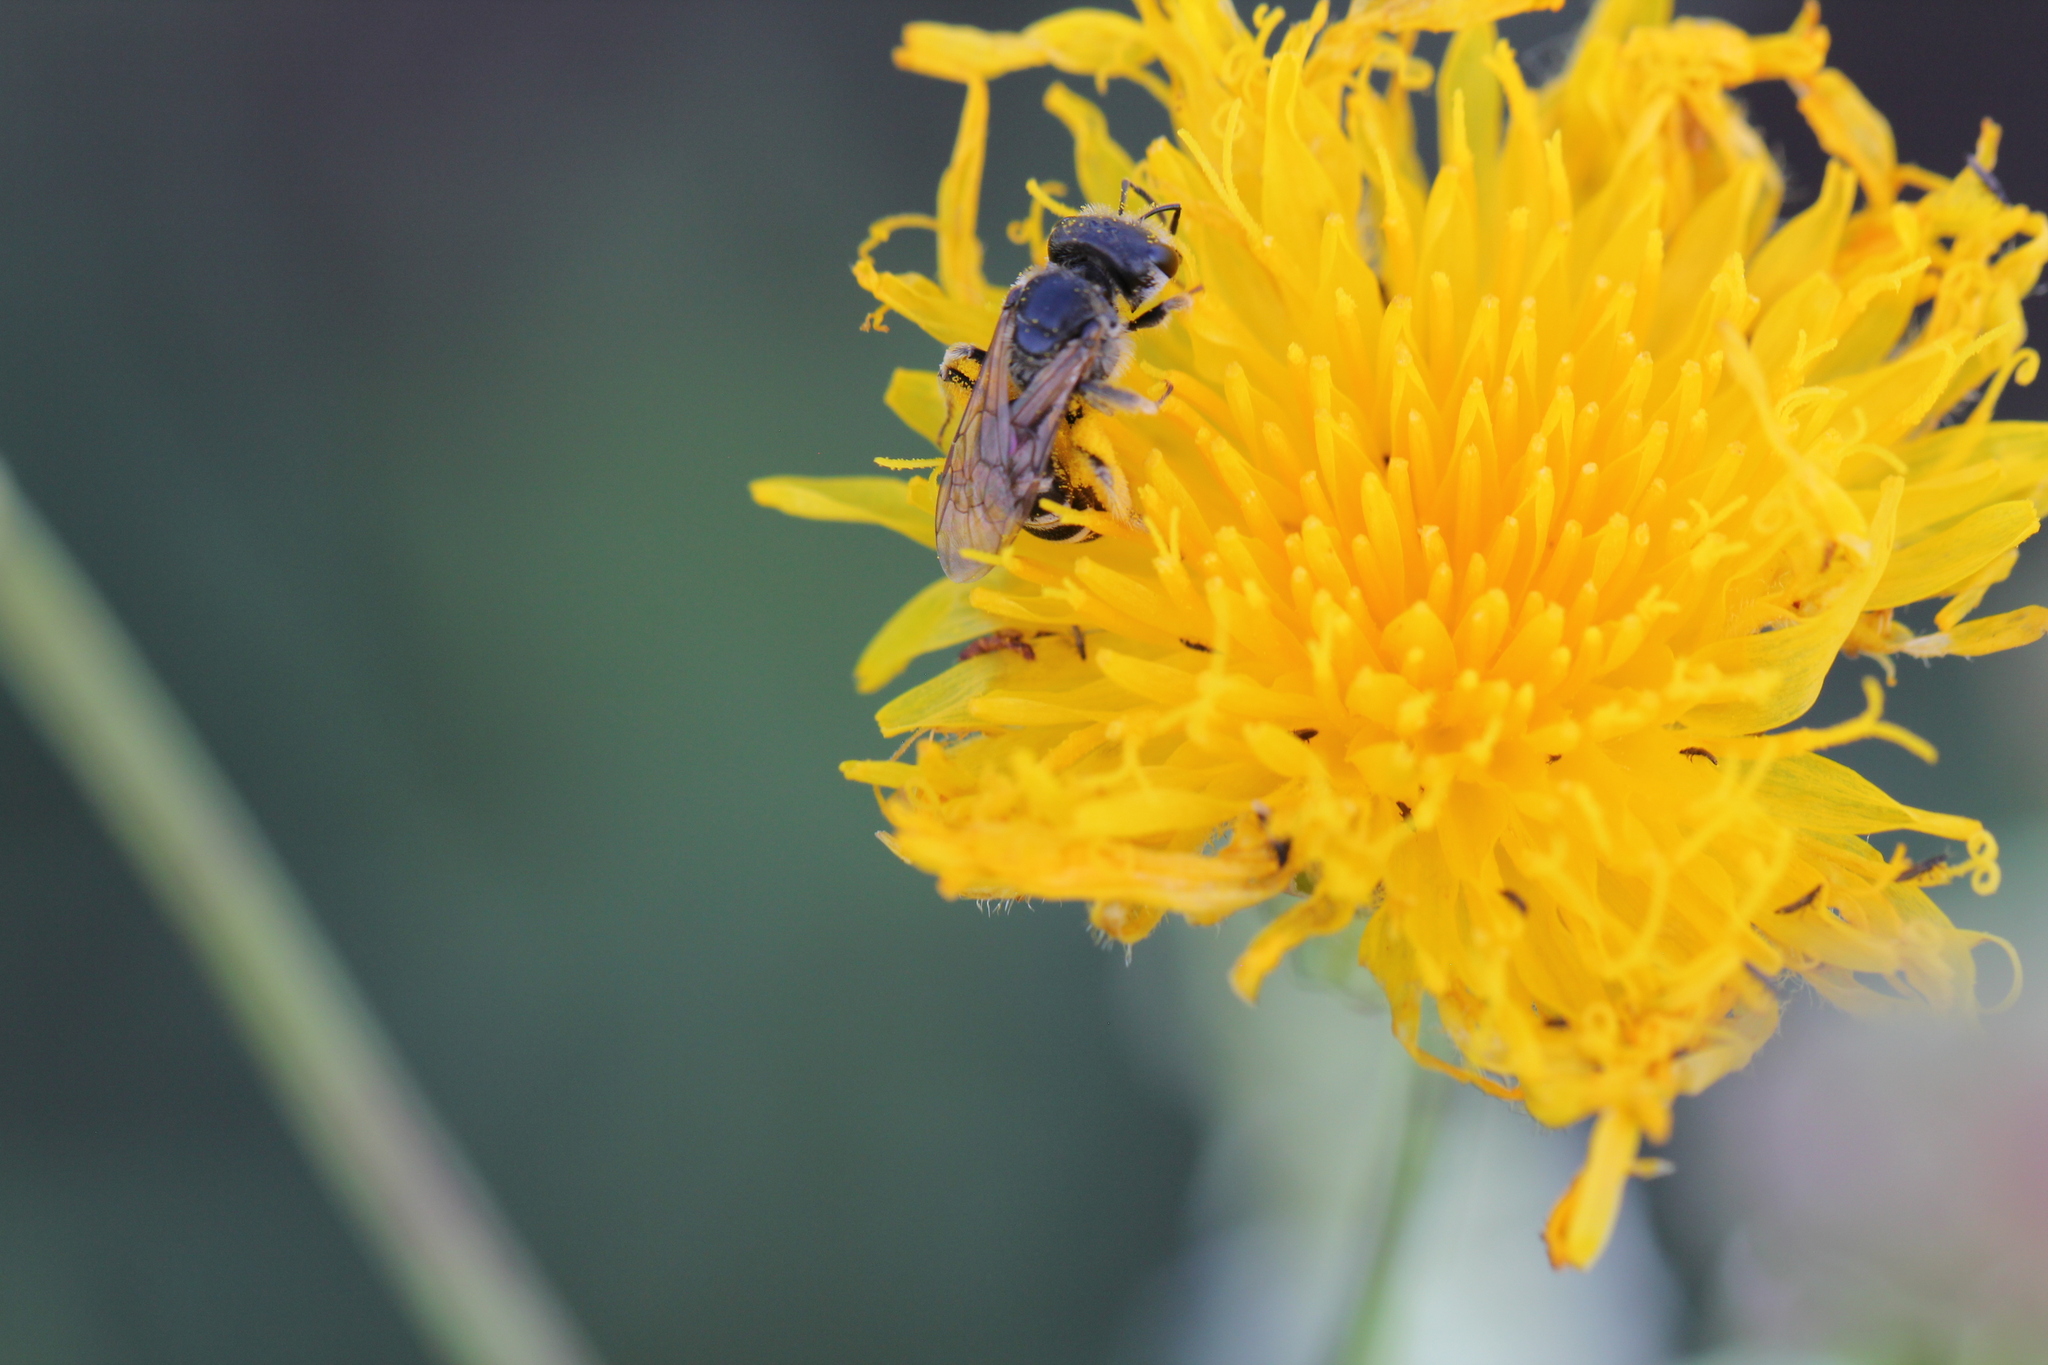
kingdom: Animalia
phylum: Arthropoda
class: Insecta
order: Hymenoptera
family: Halictidae
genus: Halictus
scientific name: Halictus ligatus
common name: Ligated furrow bee
